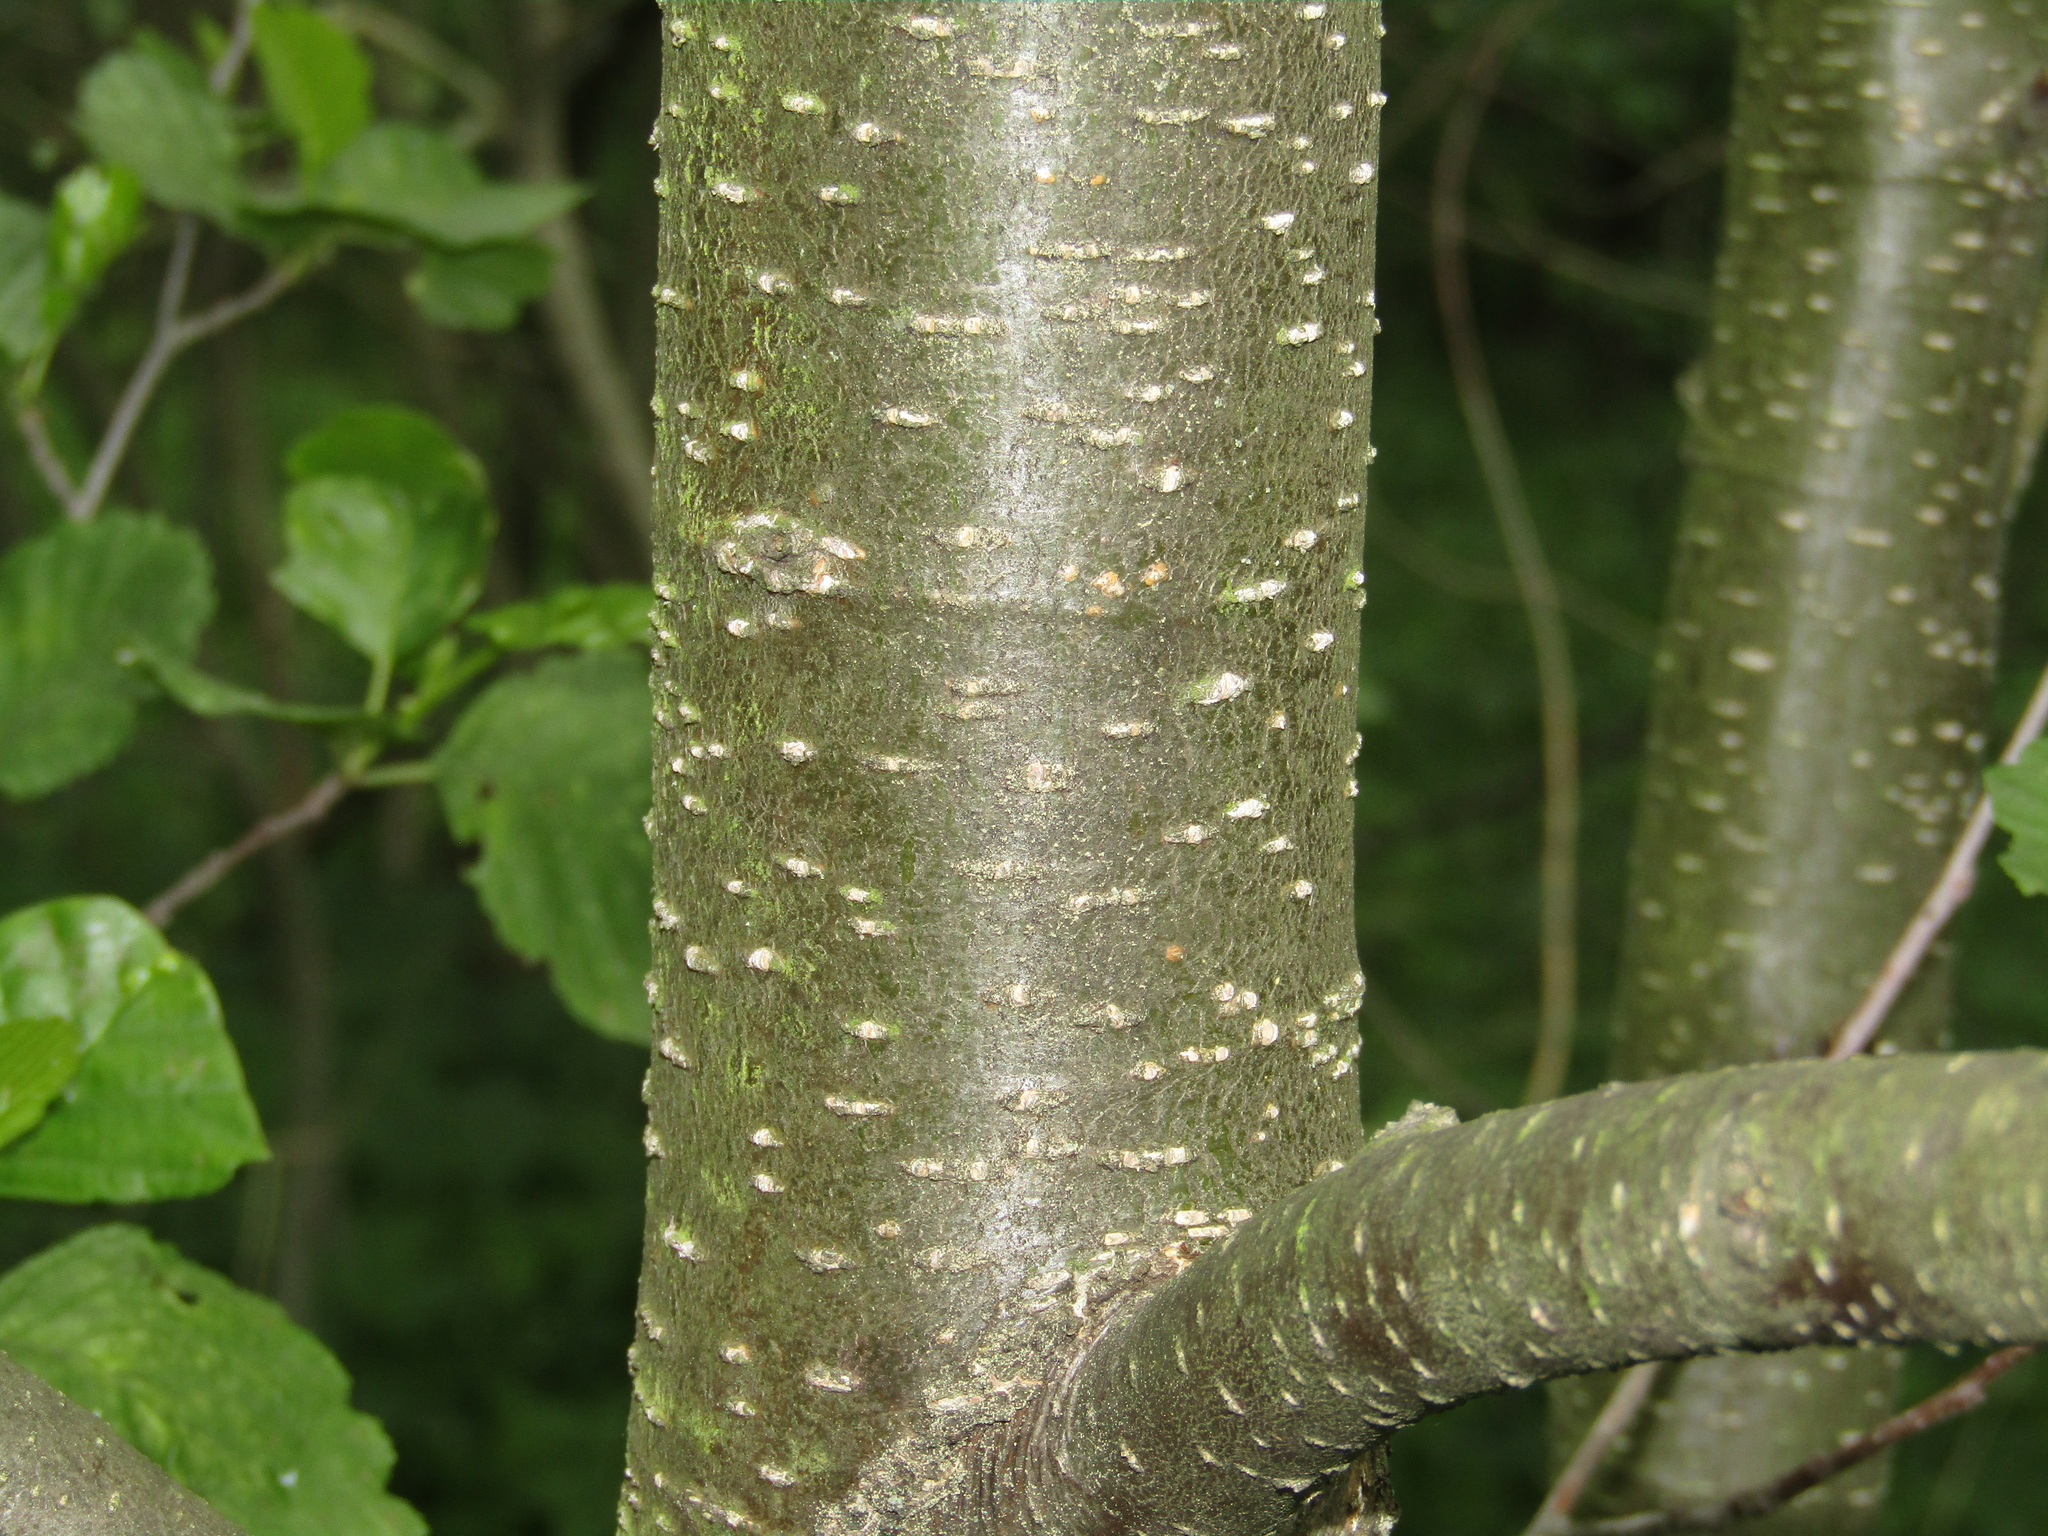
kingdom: Plantae
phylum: Tracheophyta
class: Magnoliopsida
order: Fagales
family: Betulaceae
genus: Alnus
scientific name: Alnus glutinosa
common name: Black alder
